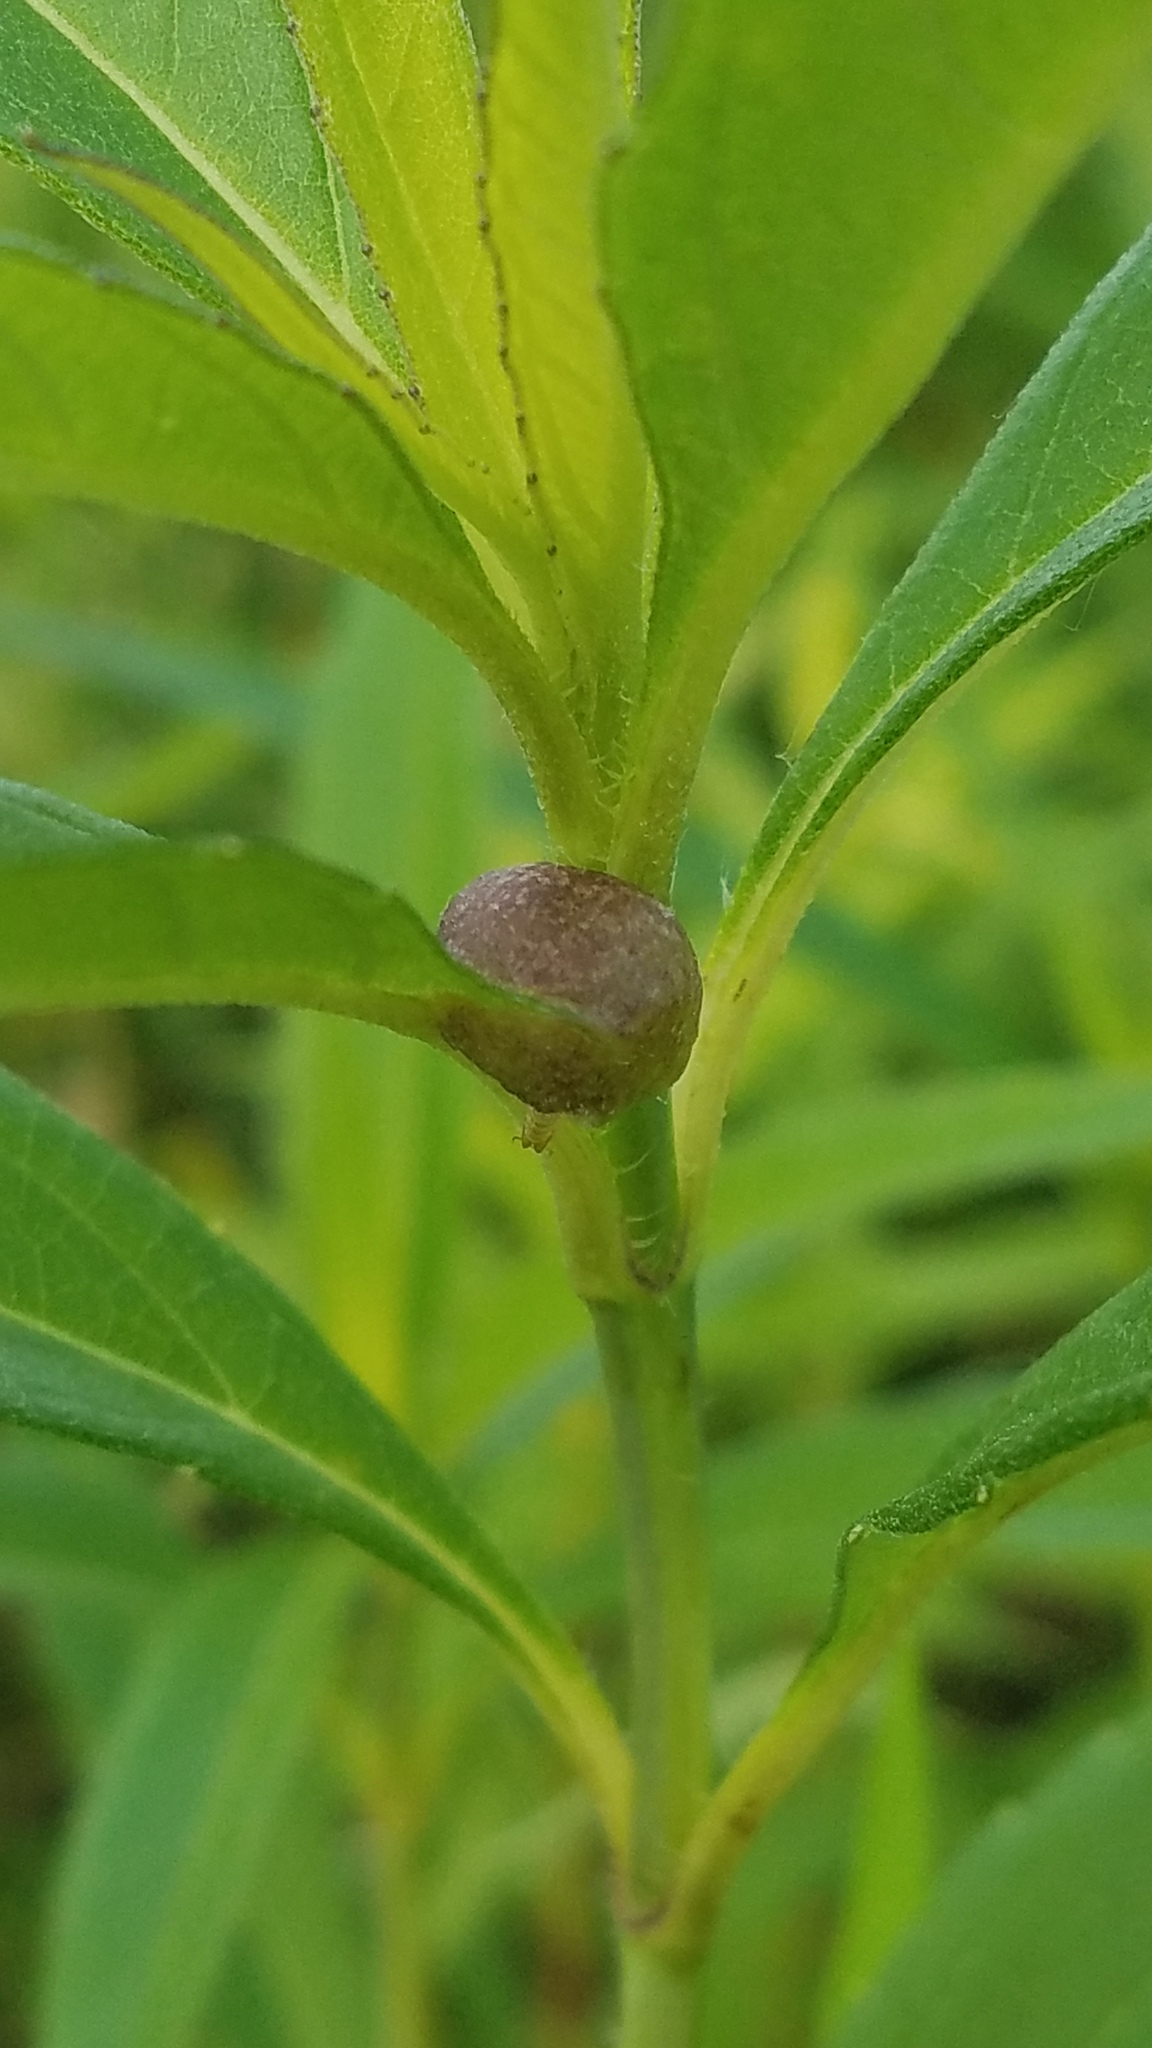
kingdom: Animalia
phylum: Arthropoda
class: Insecta
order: Diptera
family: Cecidomyiidae
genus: Asphondylia
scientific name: Asphondylia helianthiglobulus
